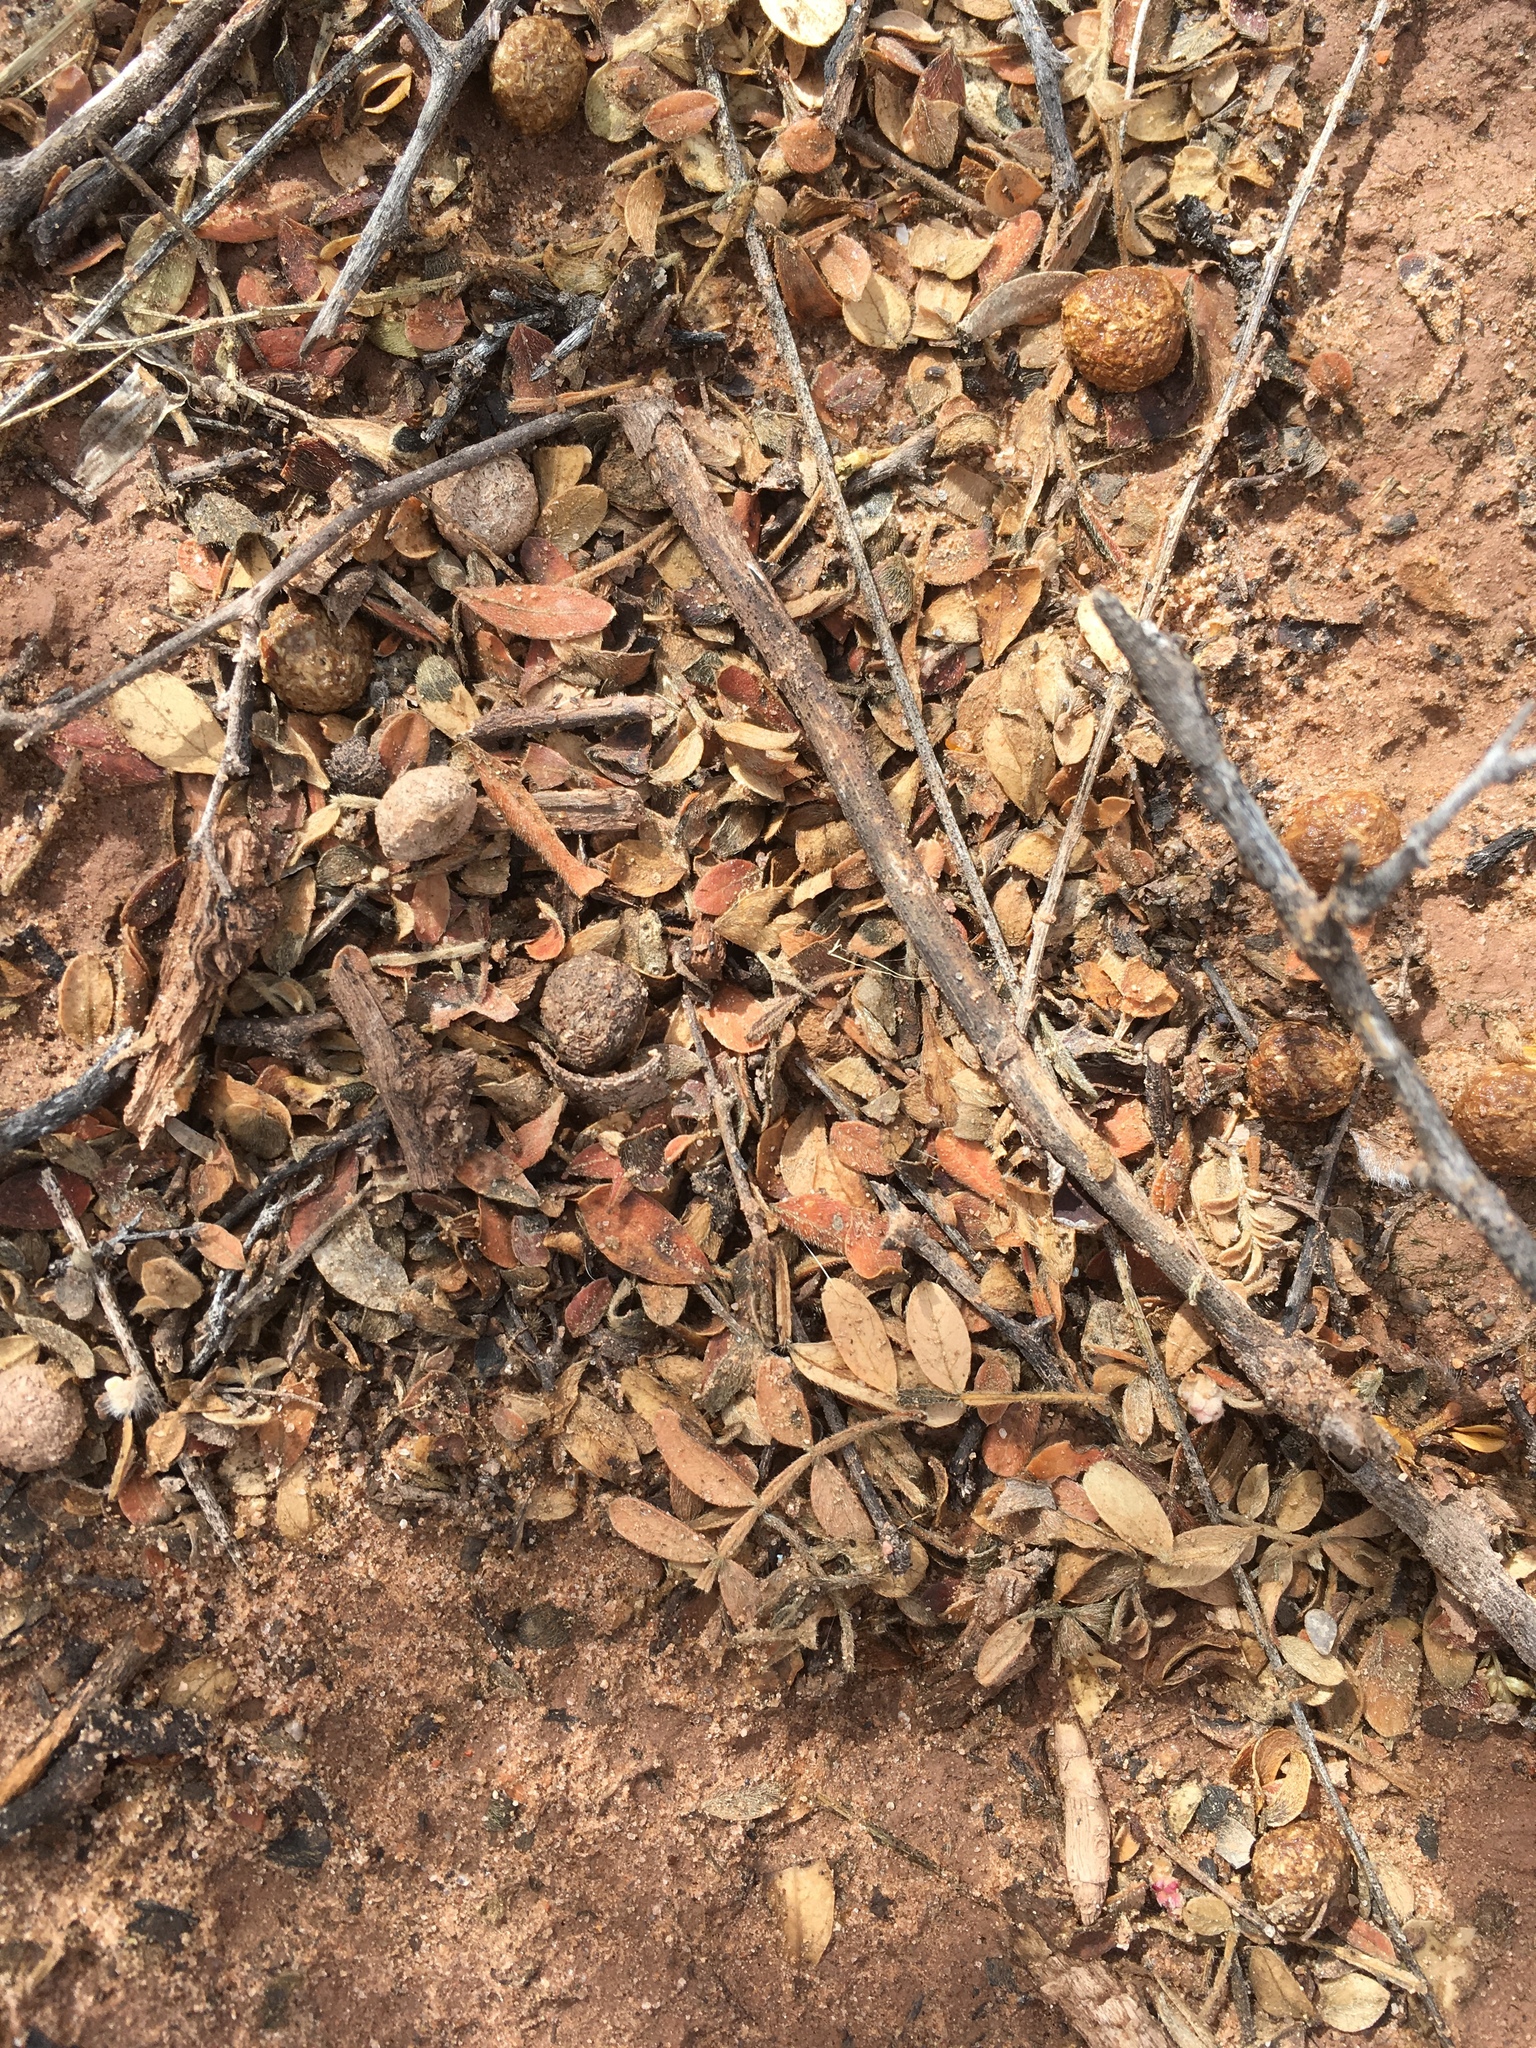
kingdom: Plantae
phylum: Tracheophyta
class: Magnoliopsida
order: Sapindales
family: Anacardiaceae
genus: Rhus
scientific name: Rhus microphylla
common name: Desert sumac
